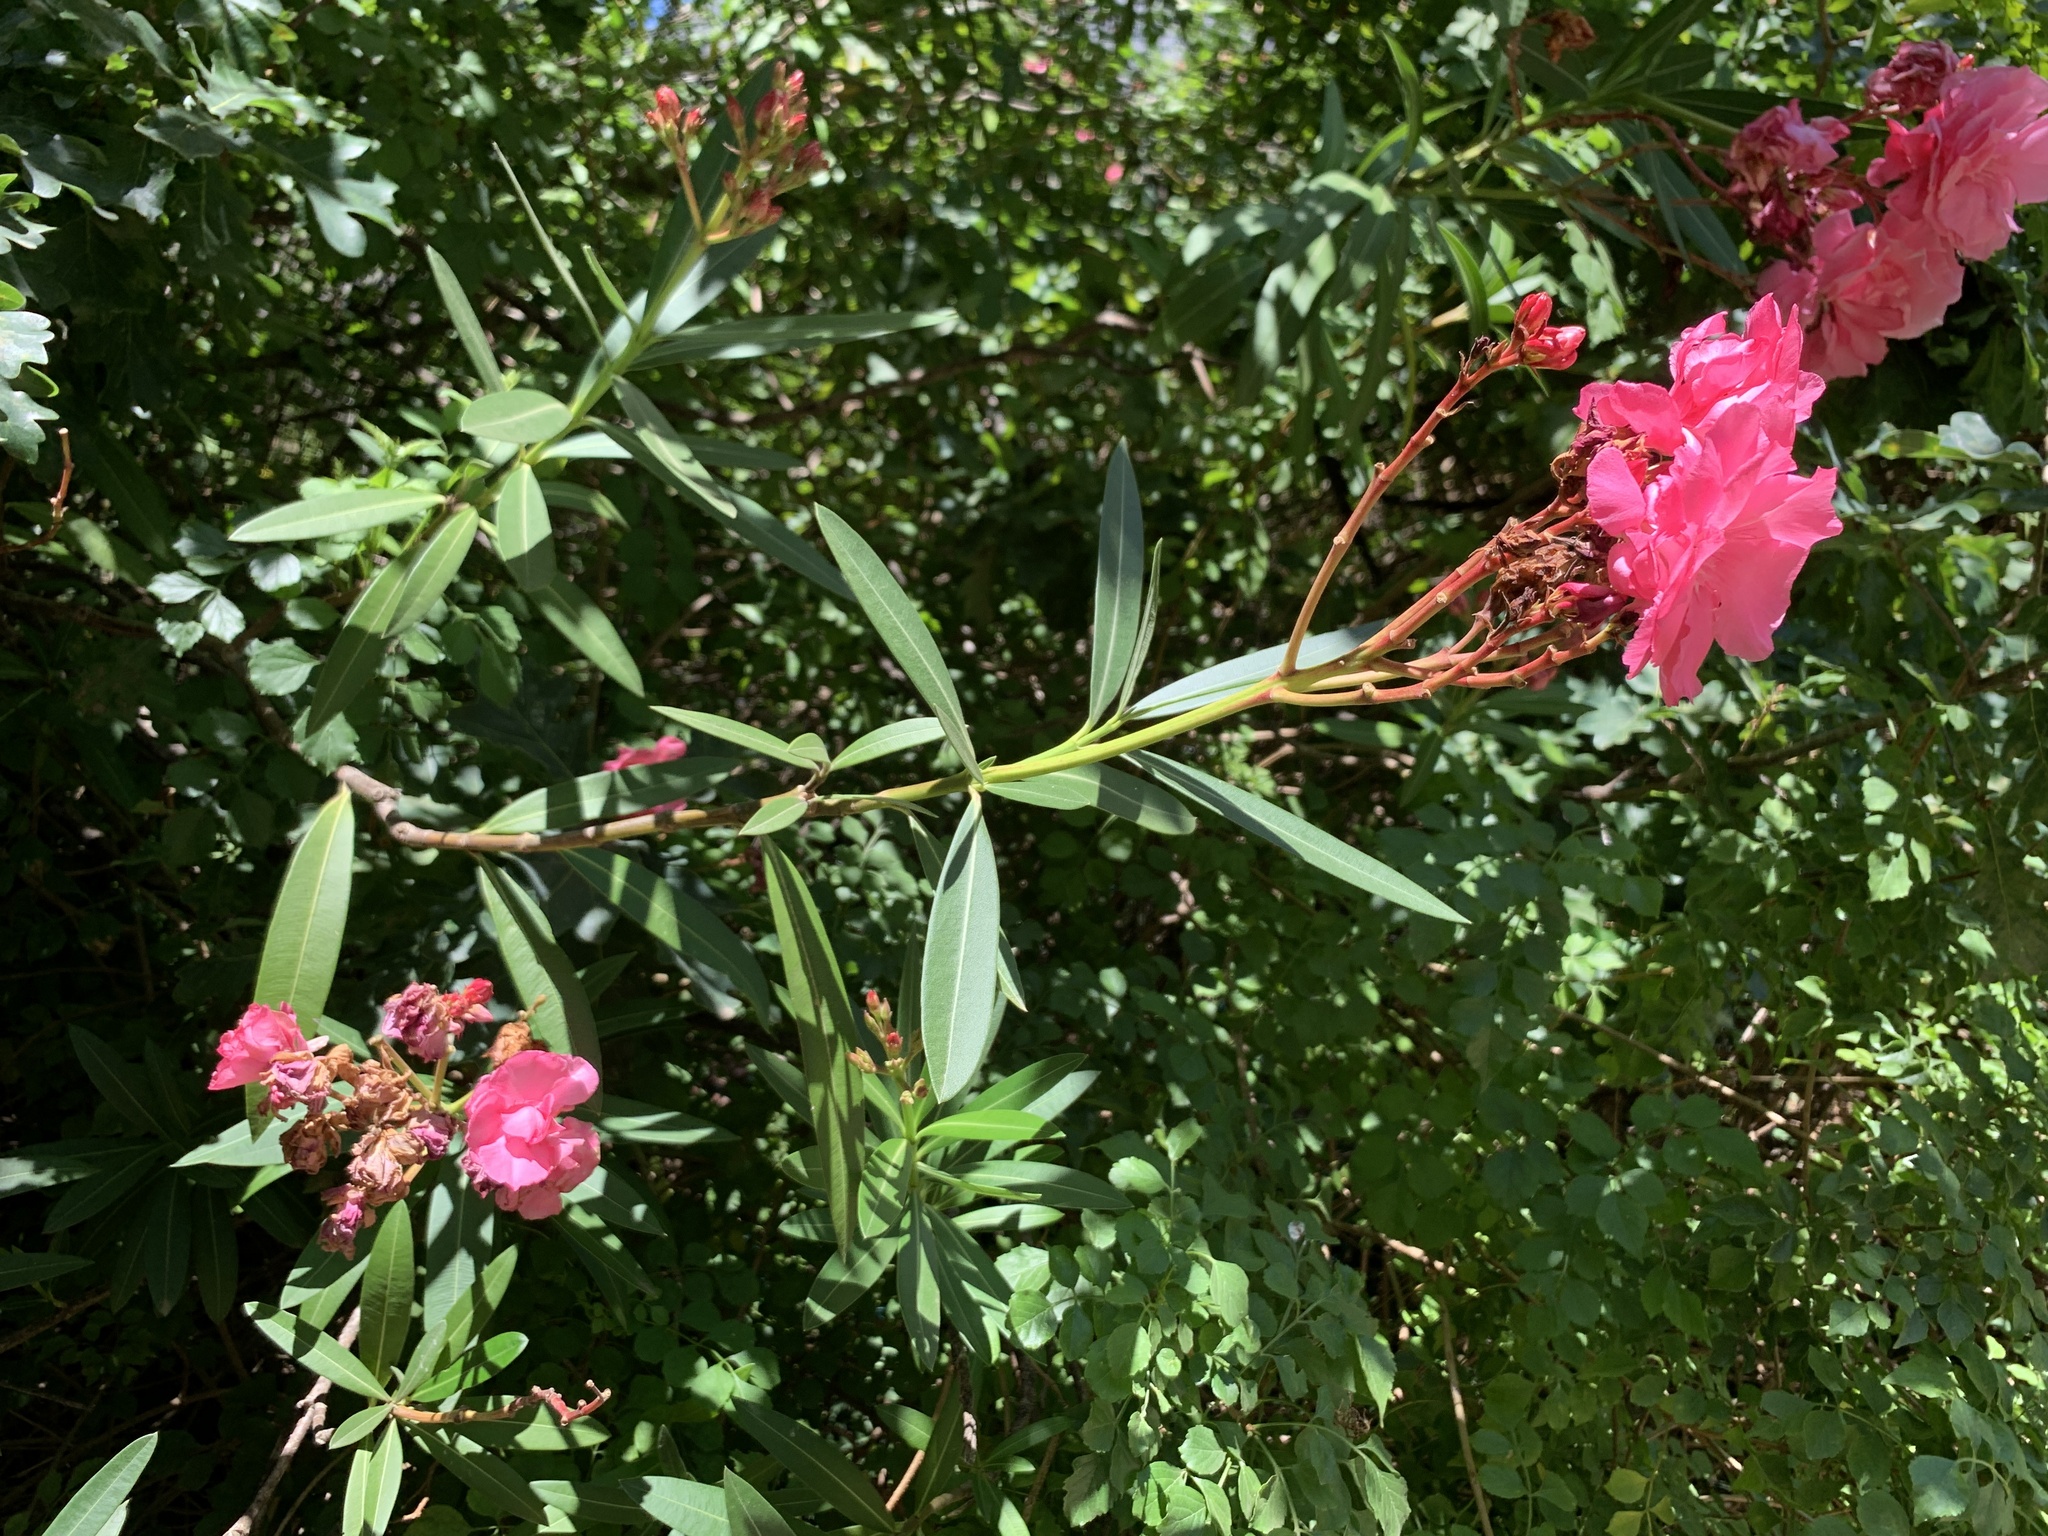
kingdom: Plantae
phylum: Tracheophyta
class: Magnoliopsida
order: Gentianales
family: Apocynaceae
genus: Nerium
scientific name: Nerium oleander
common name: Oleander
